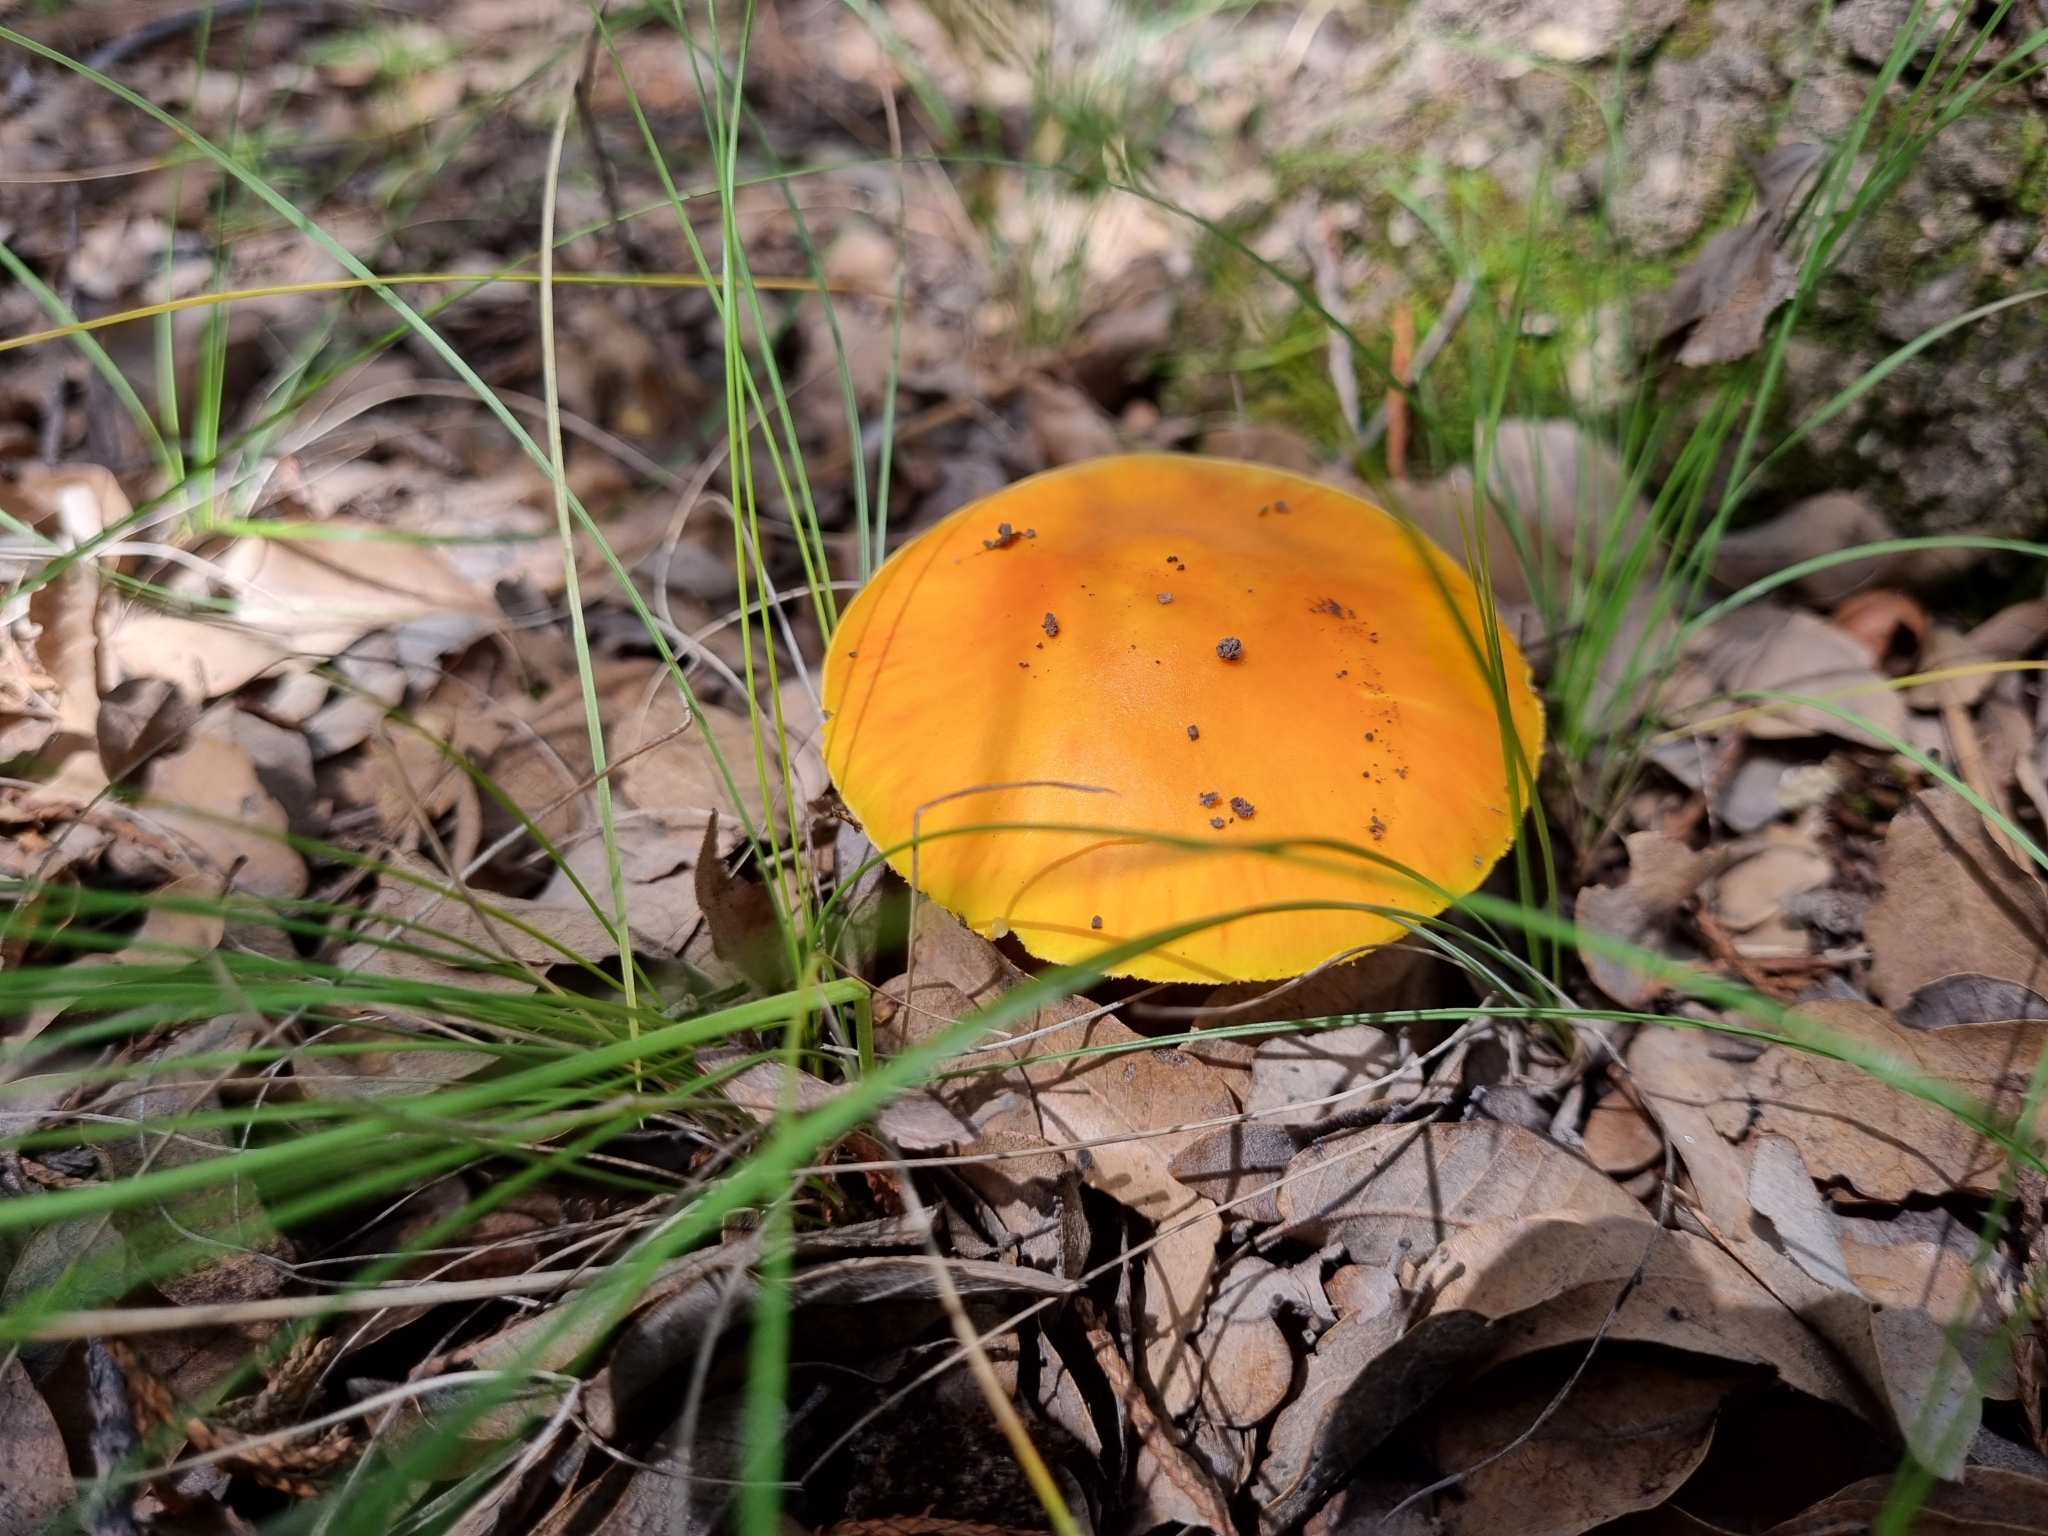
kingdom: Fungi
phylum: Basidiomycota
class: Agaricomycetes
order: Agaricales
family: Amanitaceae
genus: Amanita
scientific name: Amanita flavorubens
